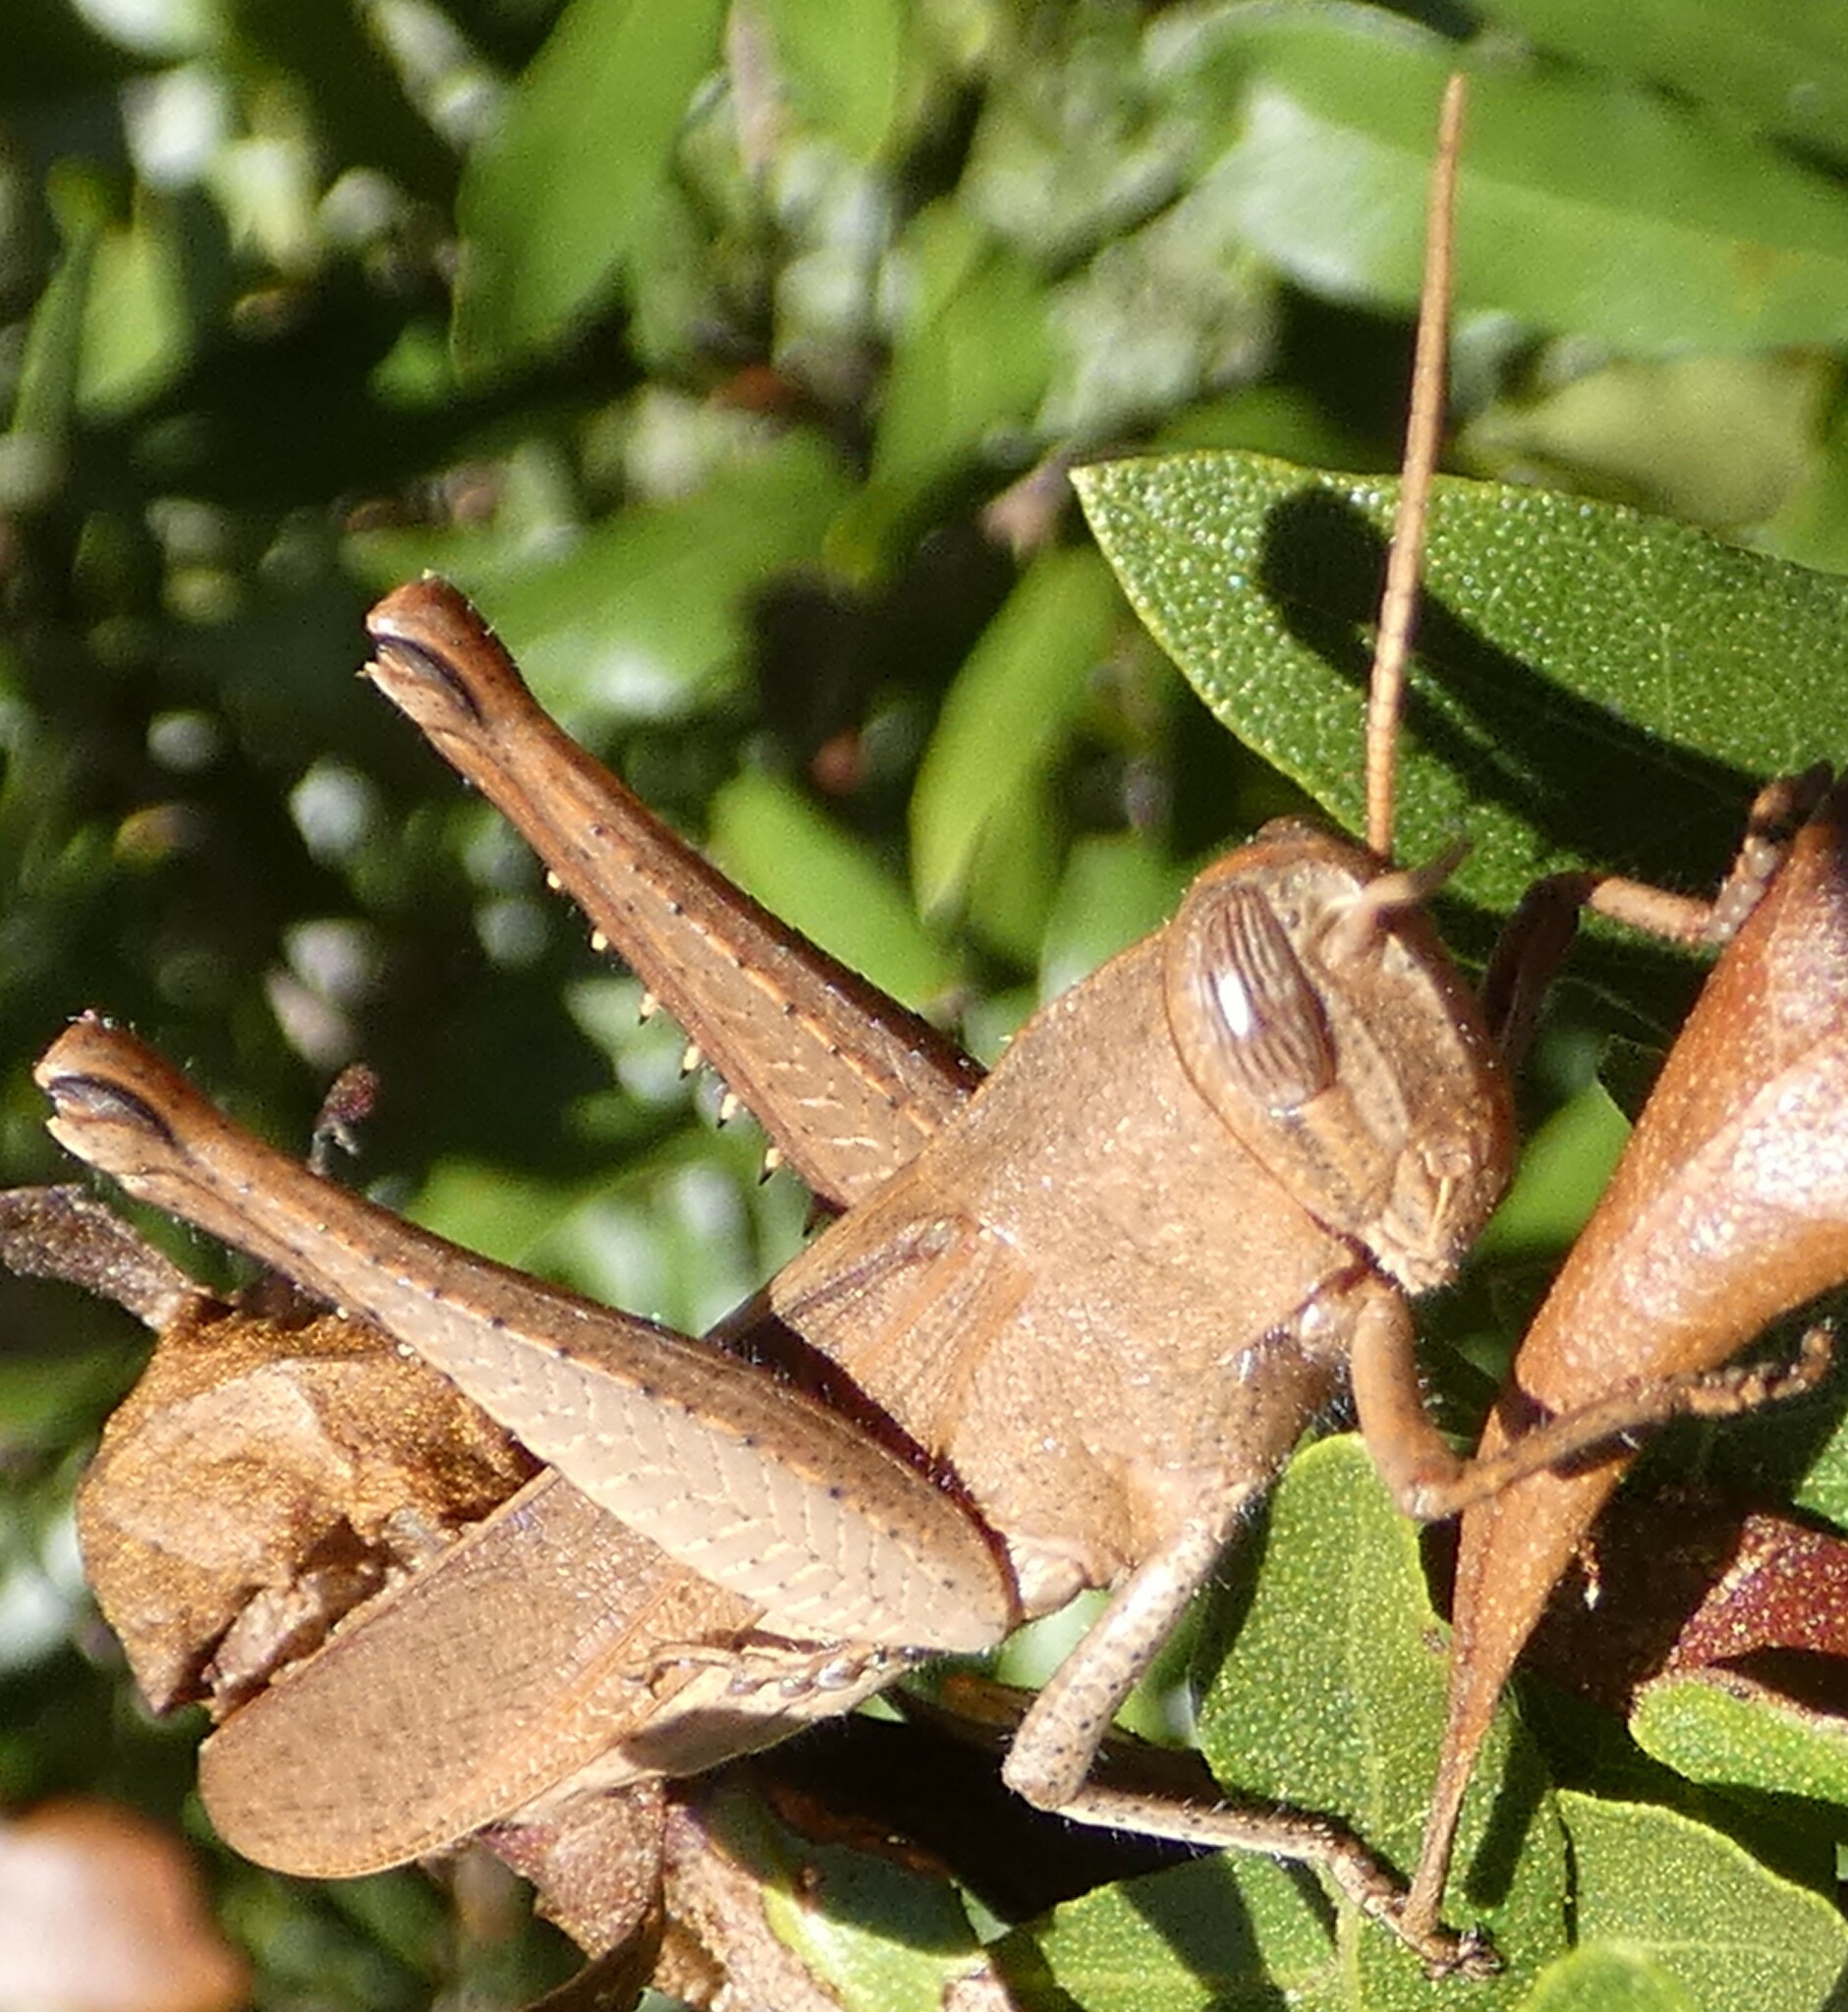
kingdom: Animalia
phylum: Arthropoda
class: Insecta
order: Orthoptera
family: Acrididae
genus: Schistocerca
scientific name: Schistocerca damnifica
